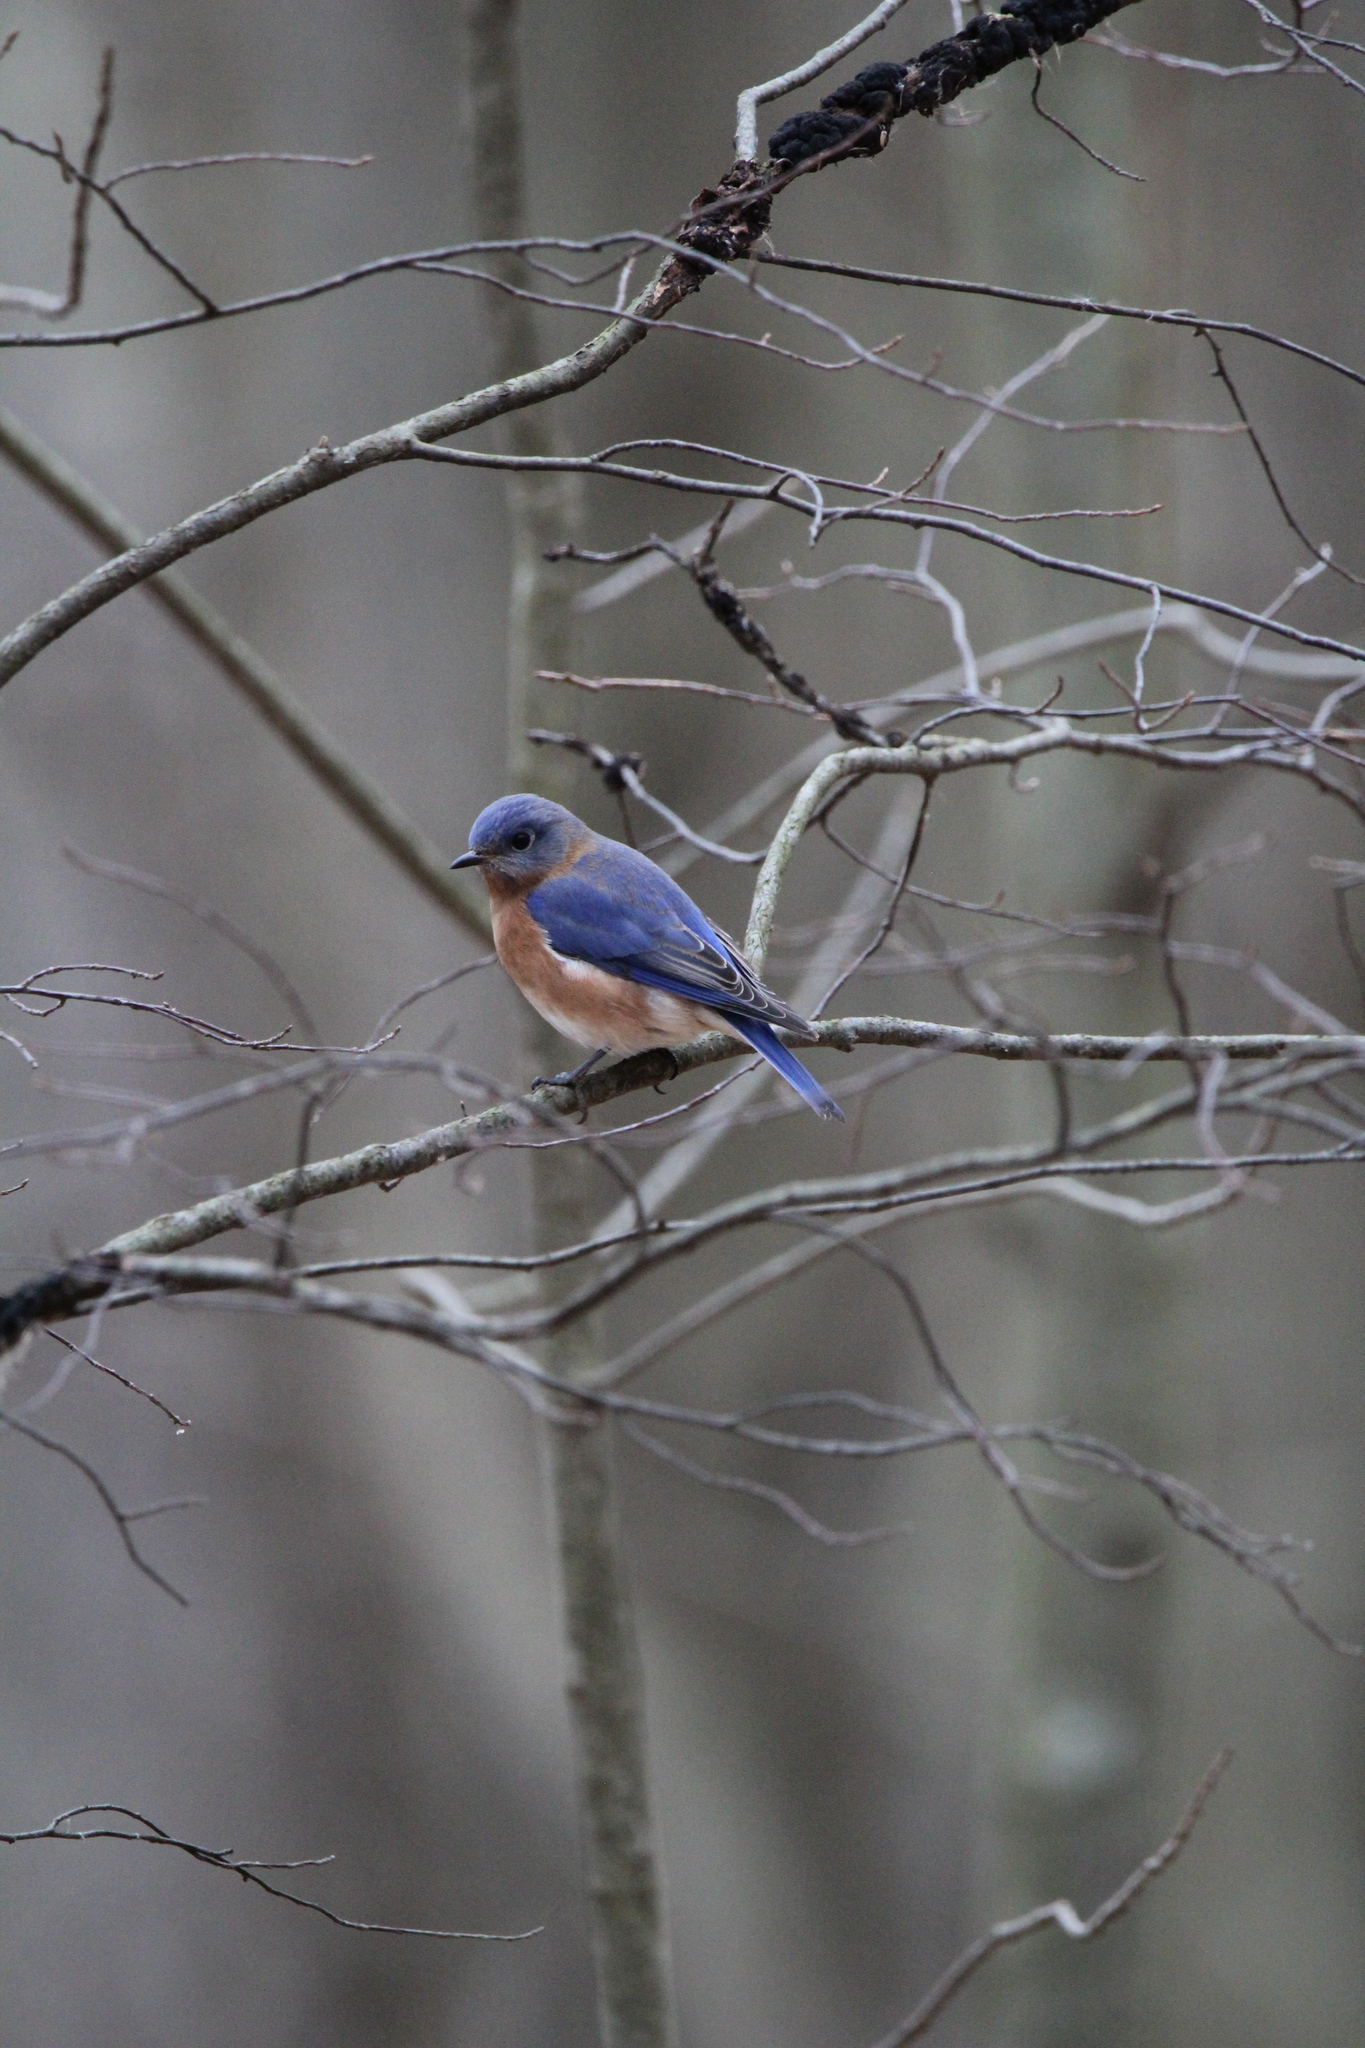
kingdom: Animalia
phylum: Chordata
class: Aves
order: Passeriformes
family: Turdidae
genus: Sialia
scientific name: Sialia sialis
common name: Eastern bluebird
